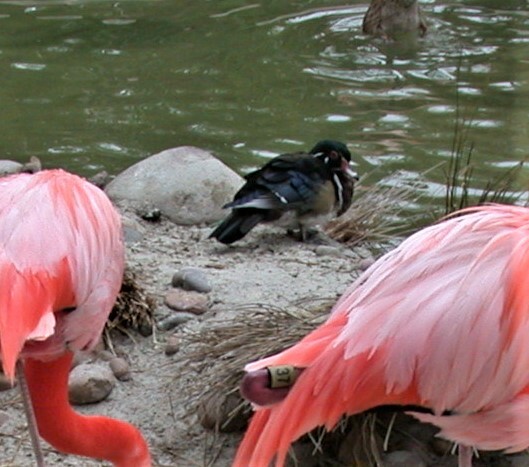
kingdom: Animalia
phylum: Chordata
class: Aves
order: Anseriformes
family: Anatidae
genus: Aix
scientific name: Aix sponsa
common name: Wood duck
